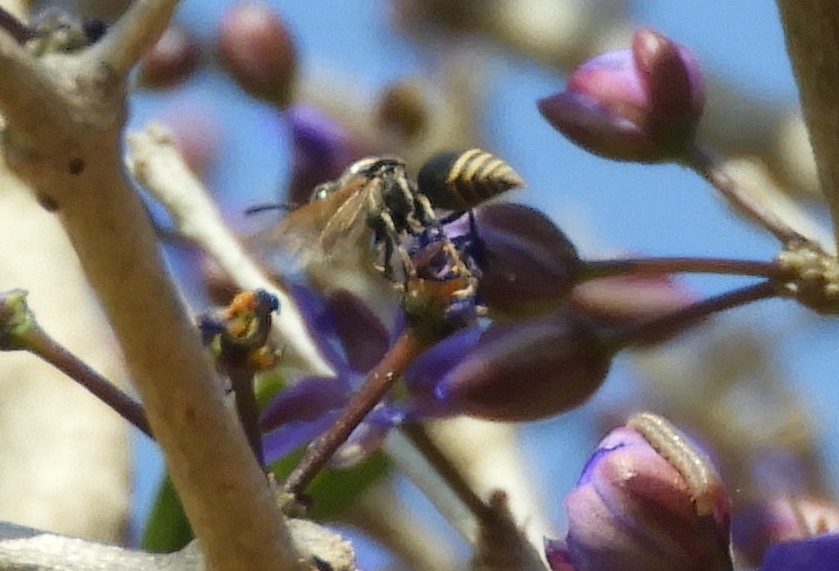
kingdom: Animalia
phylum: Arthropoda
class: Insecta
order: Hymenoptera
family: Vespidae
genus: Brachygastra
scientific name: Brachygastra mellifica
